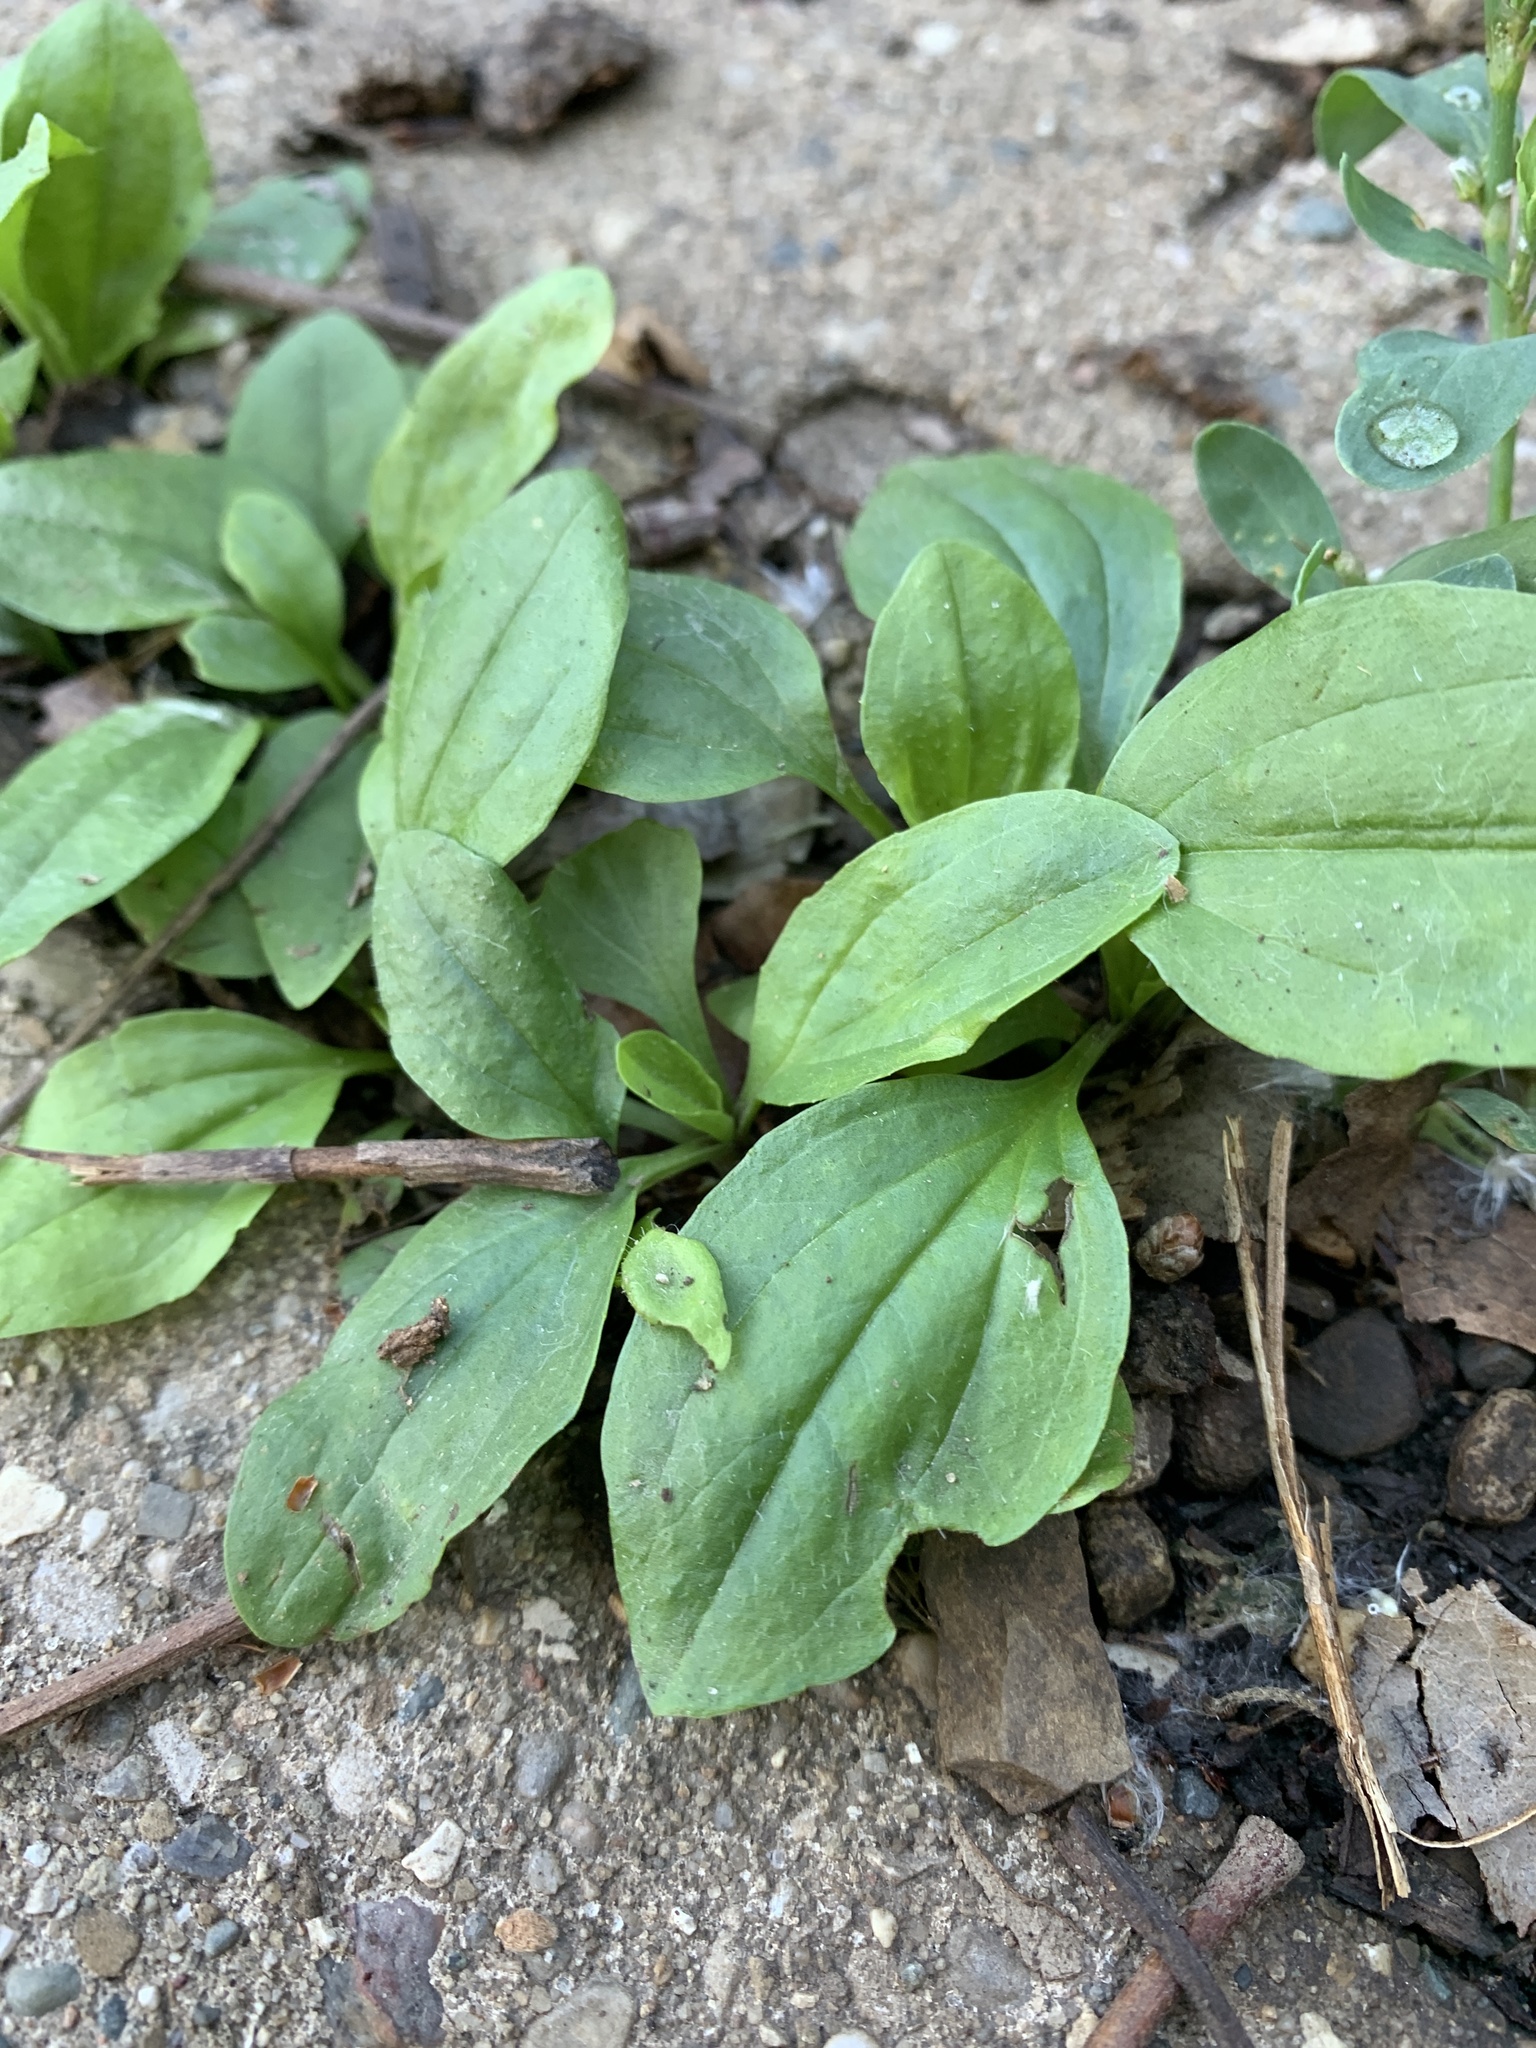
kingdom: Plantae
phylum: Tracheophyta
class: Magnoliopsida
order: Lamiales
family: Plantaginaceae
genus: Plantago
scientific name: Plantago major
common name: Common plantain
